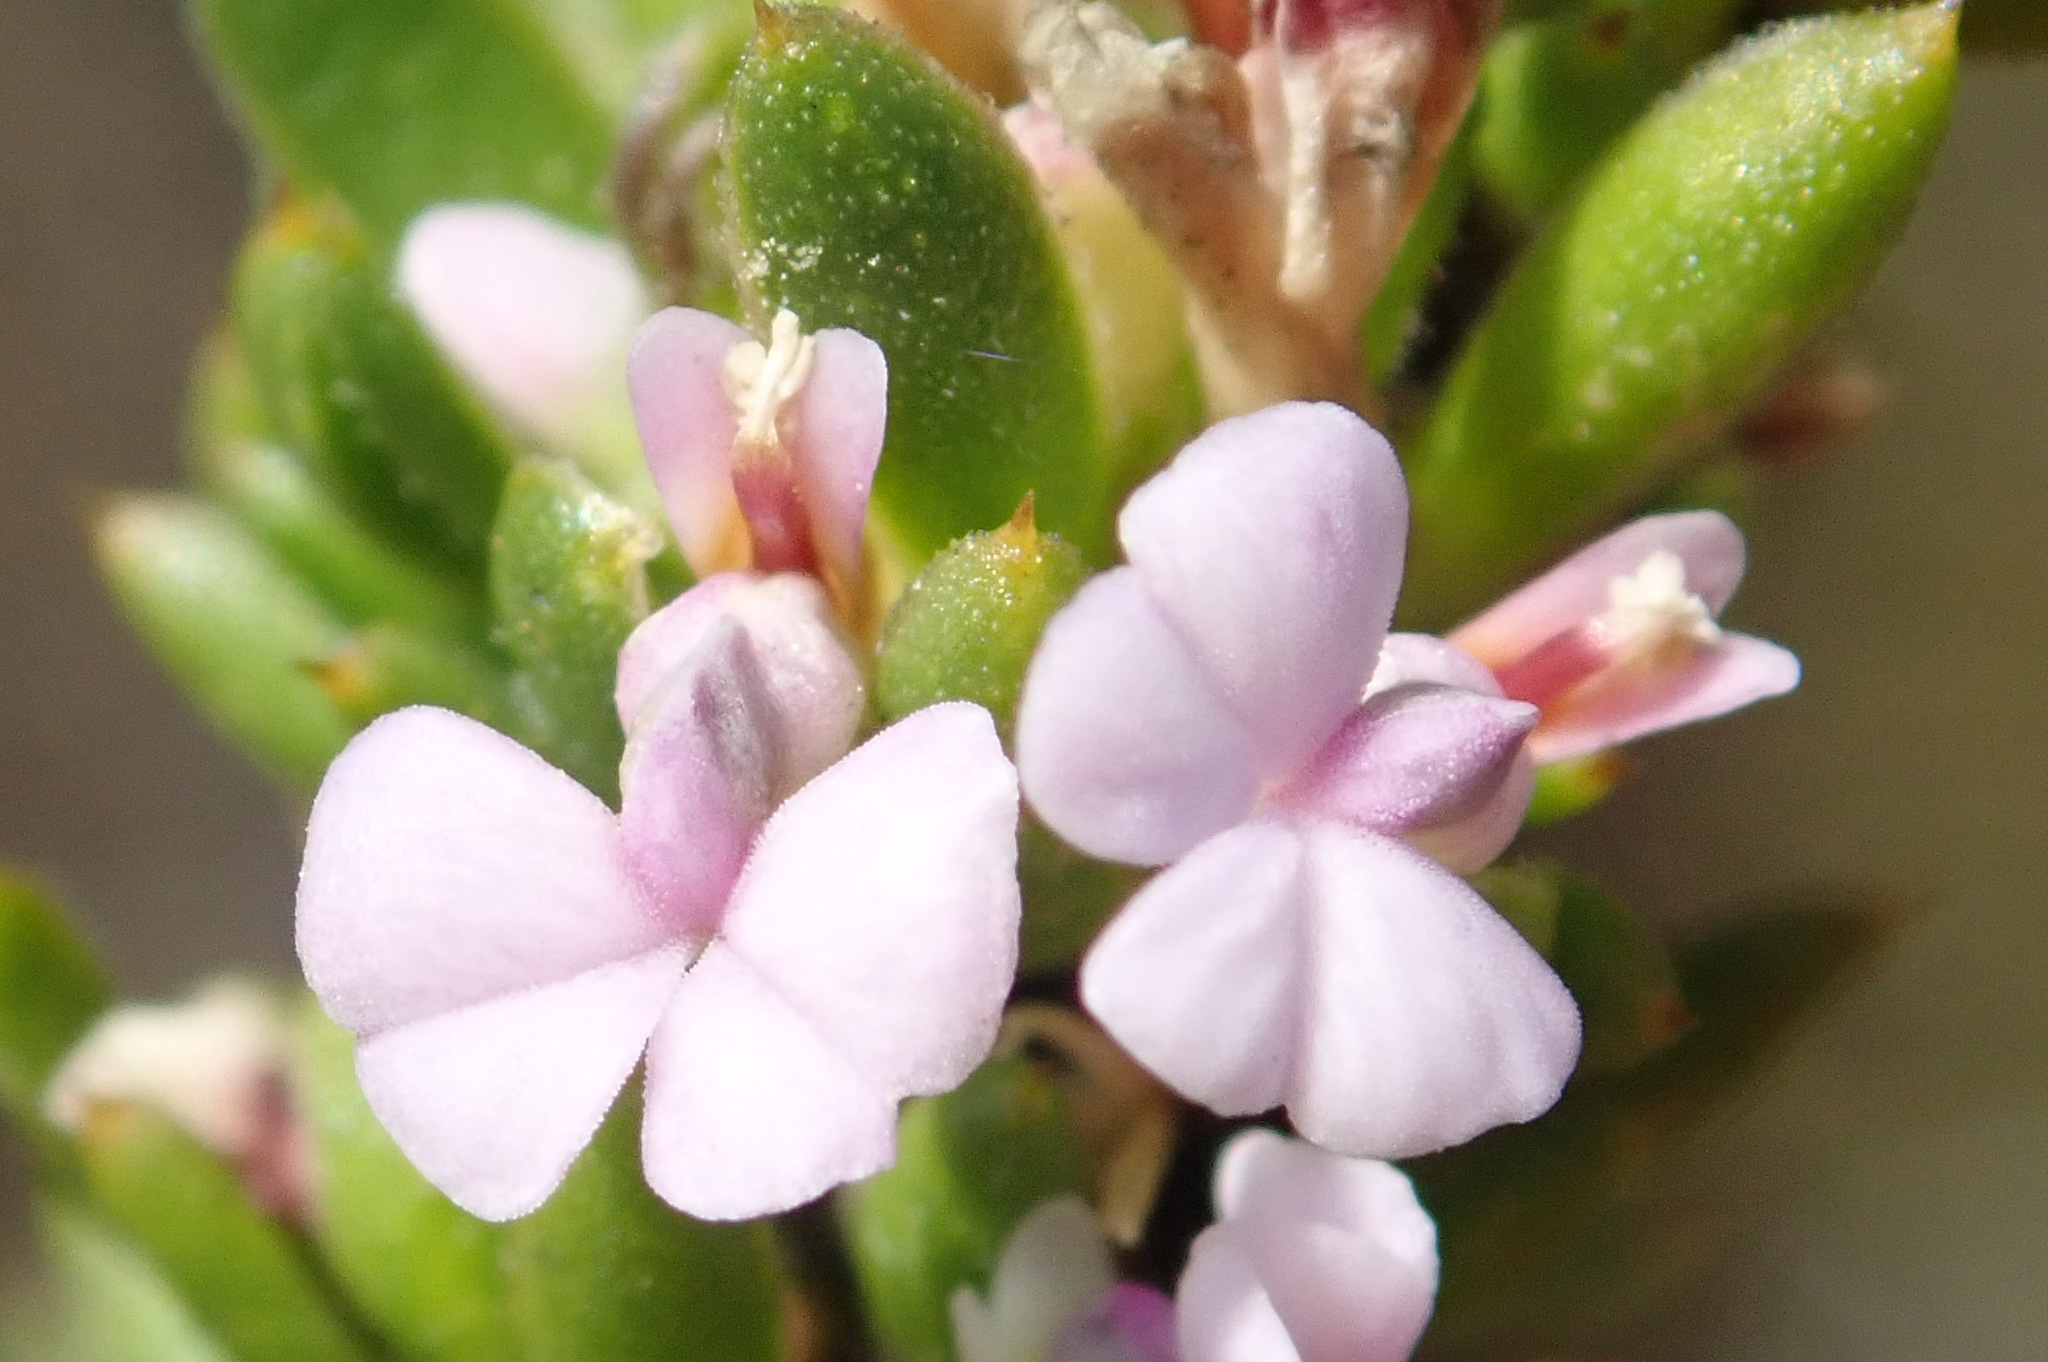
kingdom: Plantae
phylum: Tracheophyta
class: Magnoliopsida
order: Fabales
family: Polygalaceae
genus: Muraltia
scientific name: Muraltia satureioides
